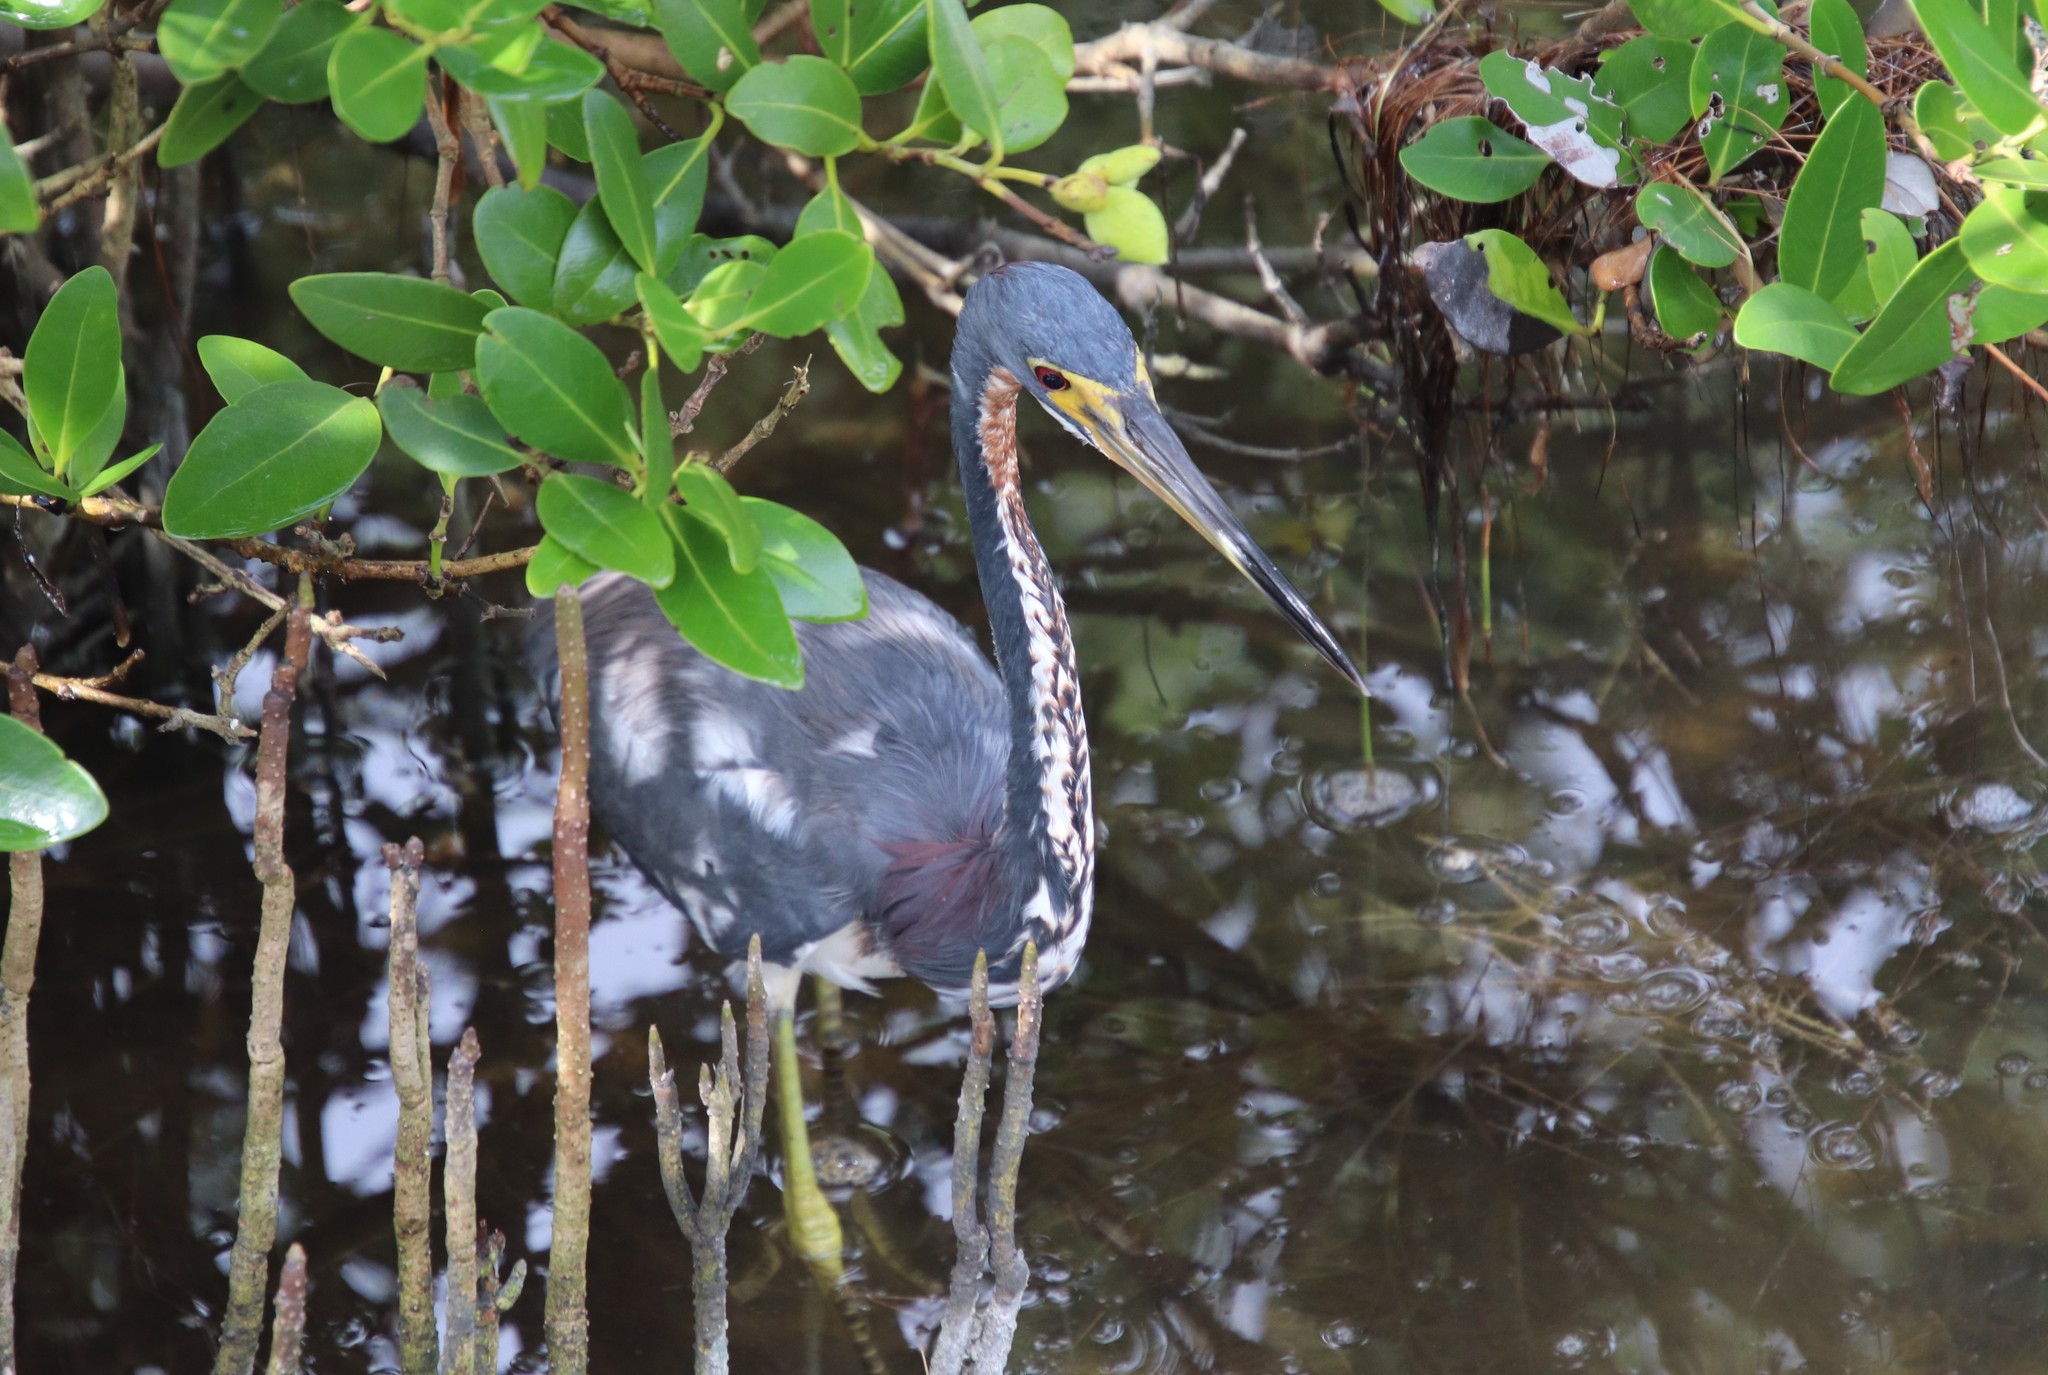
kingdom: Animalia
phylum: Chordata
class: Aves
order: Pelecaniformes
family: Ardeidae
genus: Egretta
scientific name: Egretta tricolor
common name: Tricolored heron
